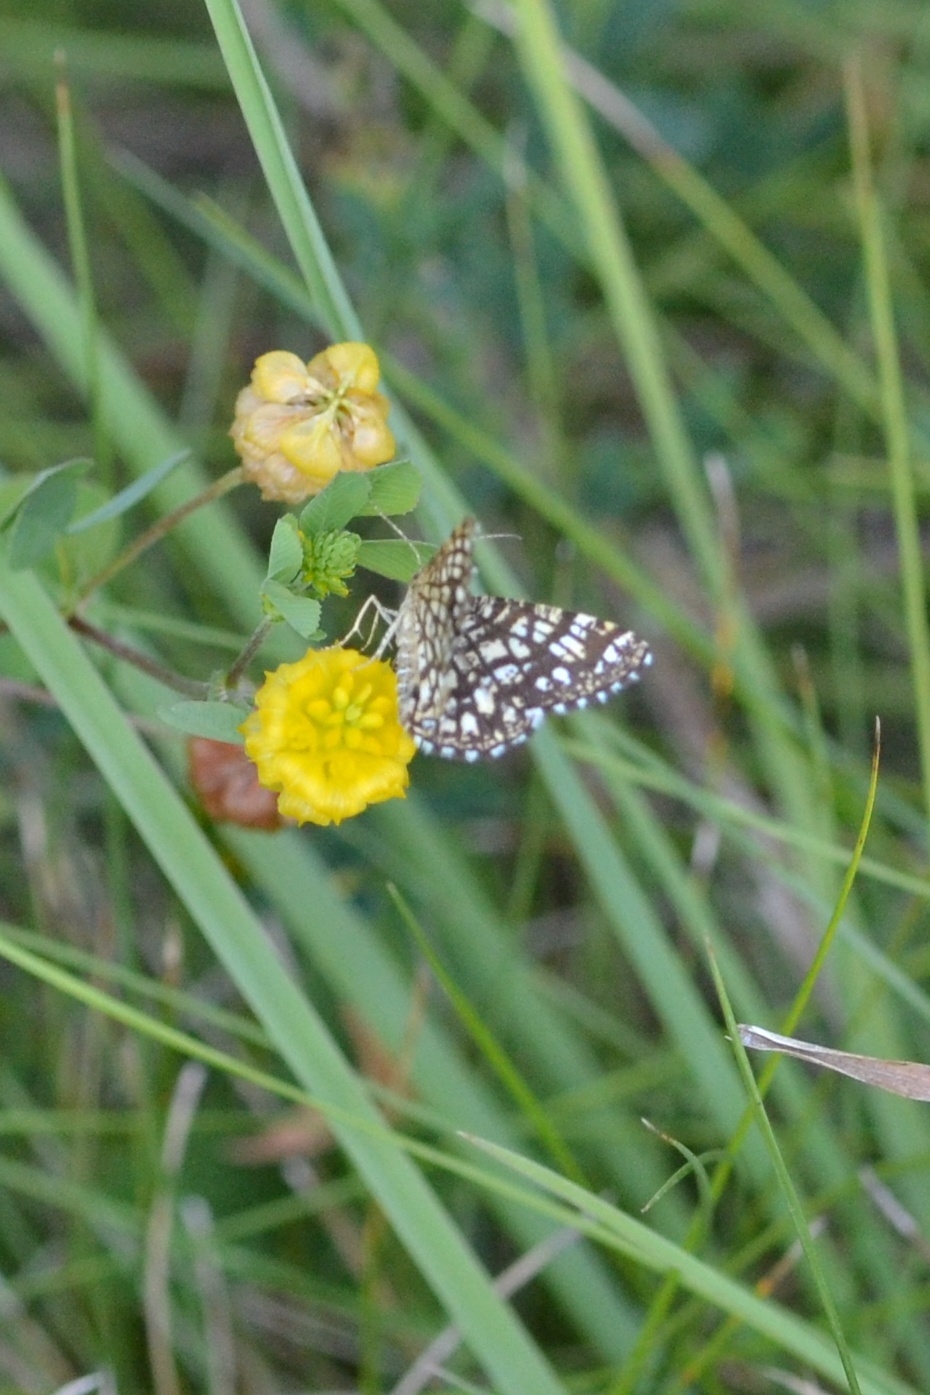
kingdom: Animalia
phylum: Arthropoda
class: Insecta
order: Lepidoptera
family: Geometridae
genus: Chiasmia
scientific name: Chiasmia clathrata
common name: Latticed heath
